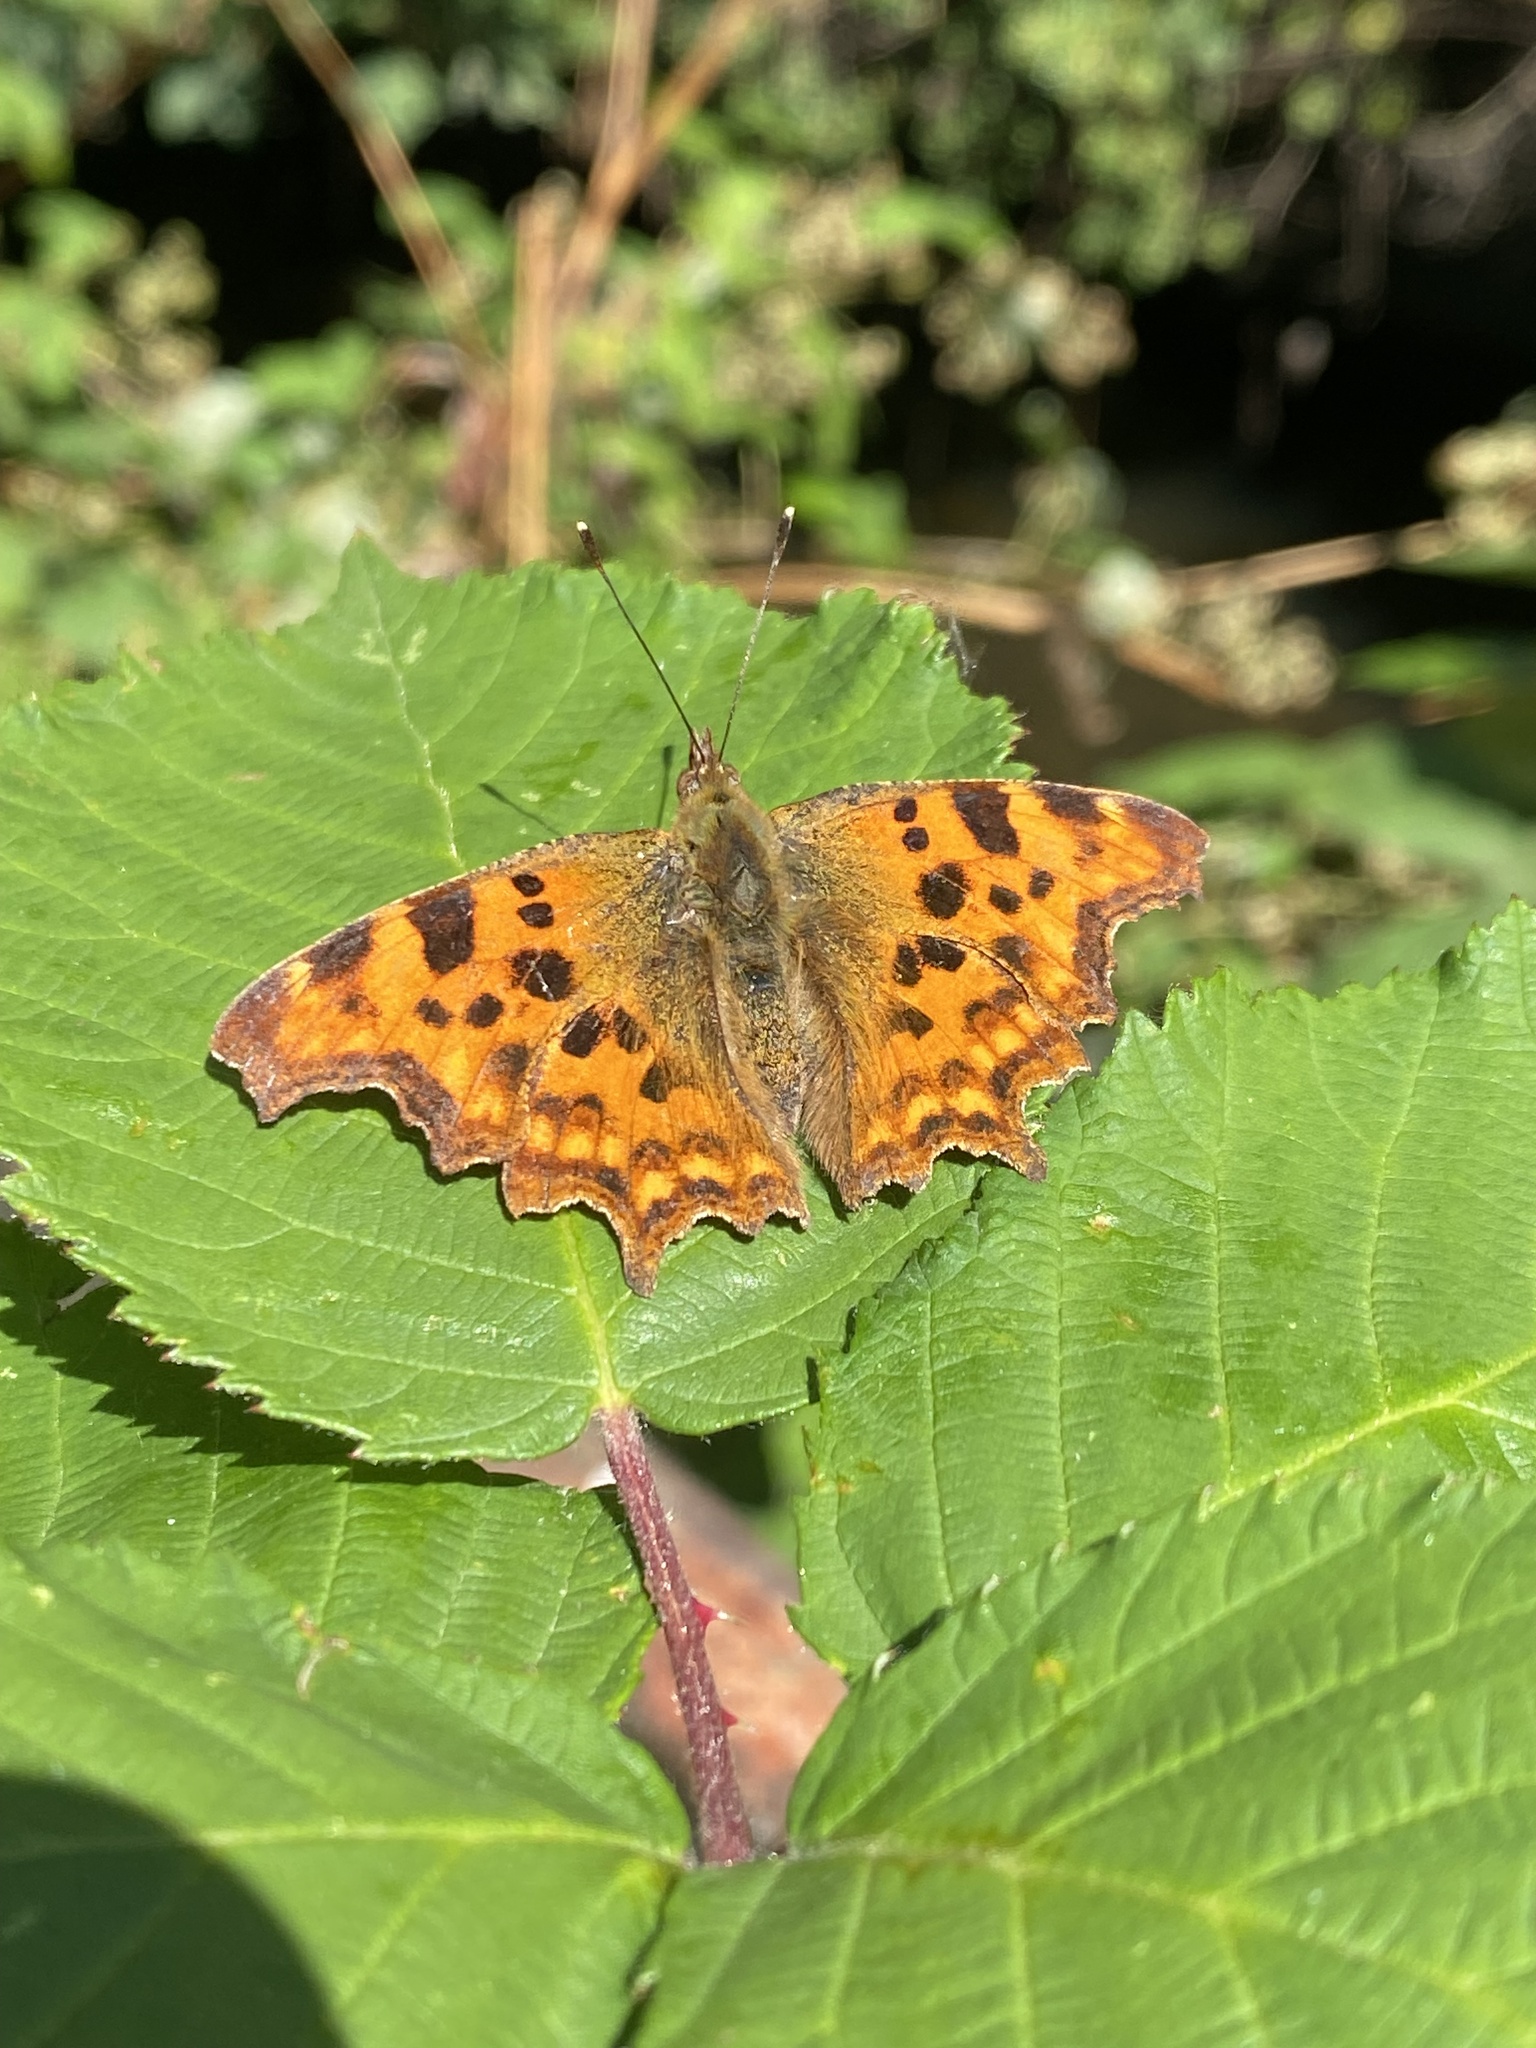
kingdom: Animalia
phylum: Arthropoda
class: Insecta
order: Lepidoptera
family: Nymphalidae
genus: Polygonia
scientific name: Polygonia c-album
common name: Comma
